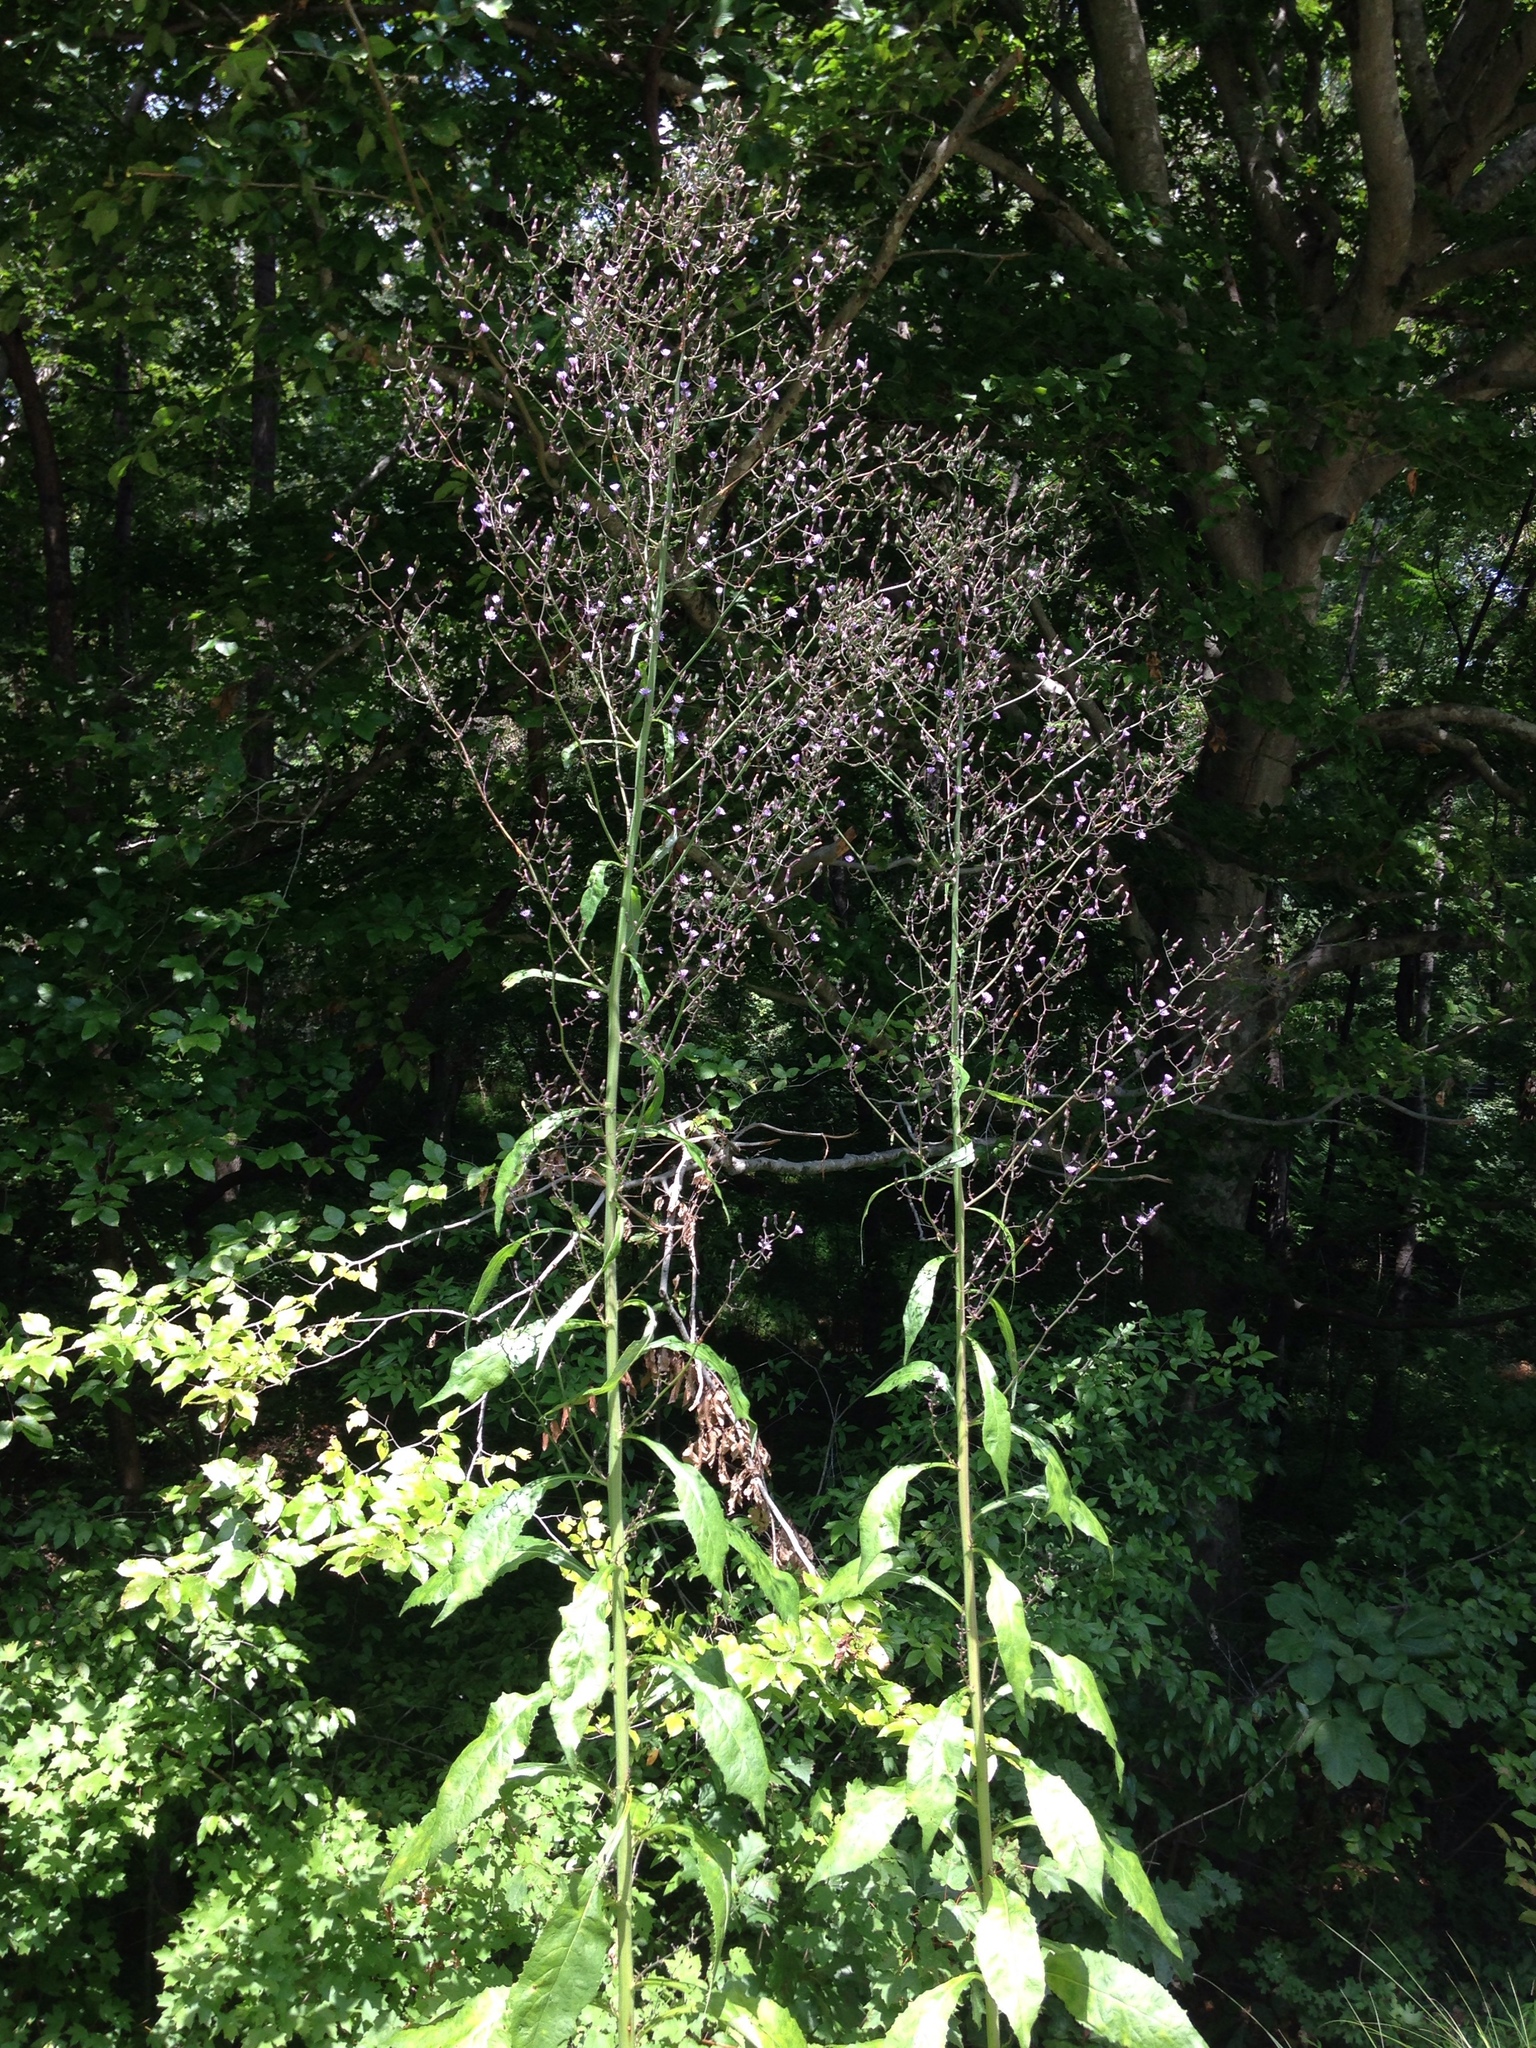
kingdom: Plantae
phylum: Tracheophyta
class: Magnoliopsida
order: Asterales
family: Asteraceae
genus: Lactuca
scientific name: Lactuca floridana
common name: Woodland lettuce
